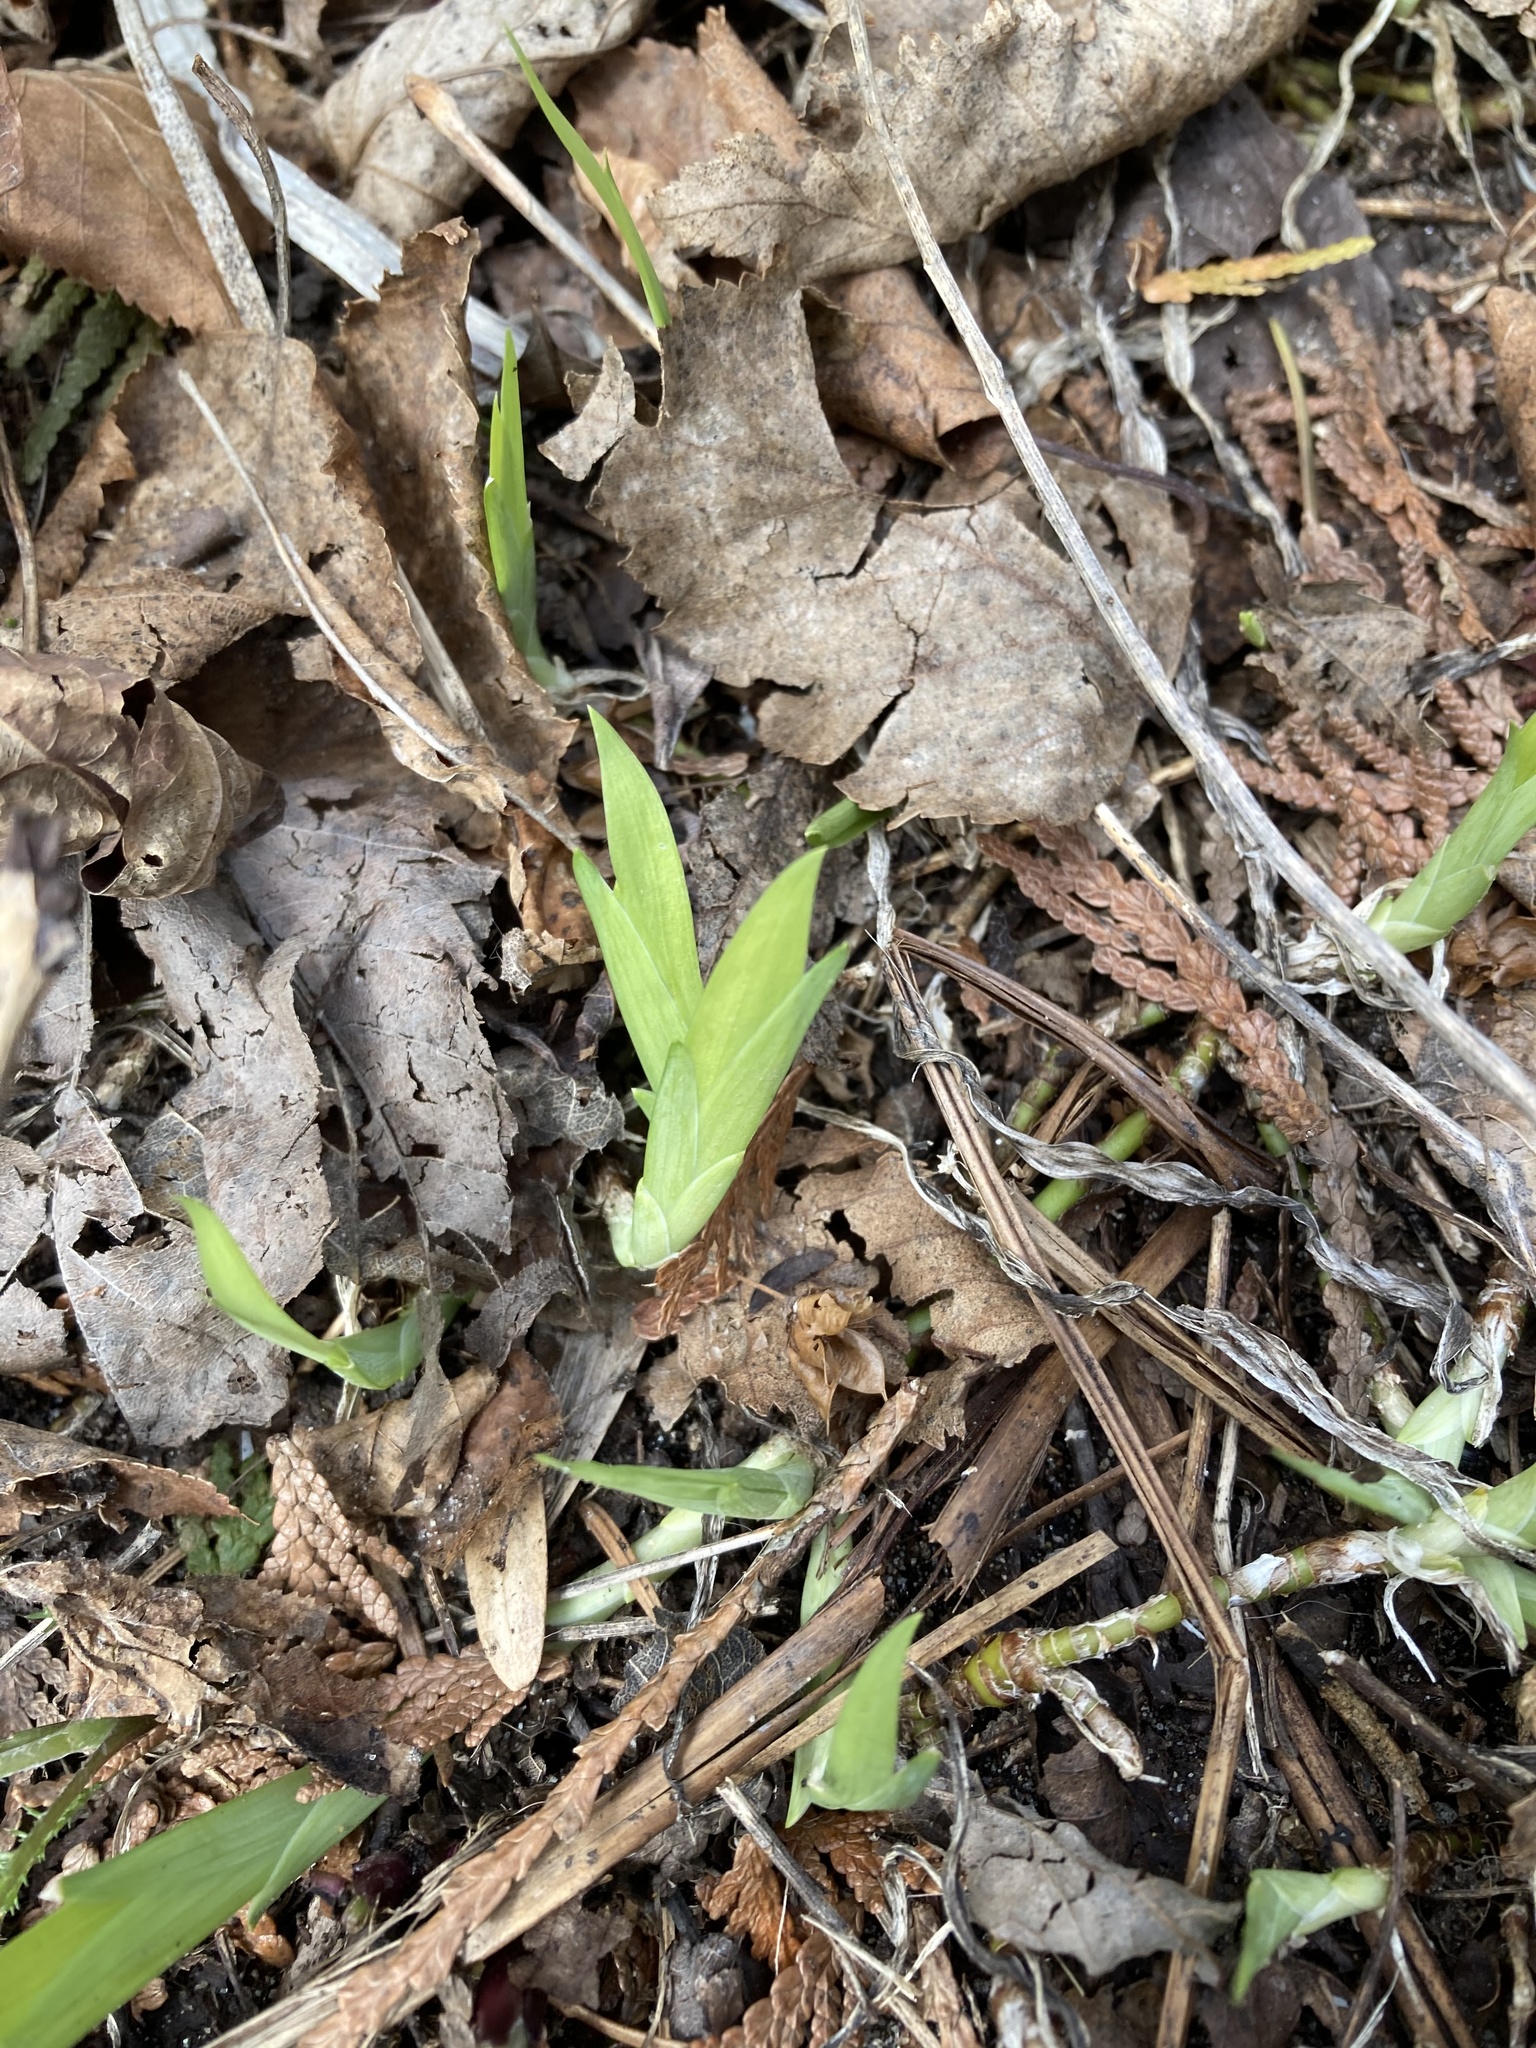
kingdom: Plantae
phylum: Tracheophyta
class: Liliopsida
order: Asparagales
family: Iridaceae
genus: Iris
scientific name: Iris lacustris
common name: Dwarf lake iris
